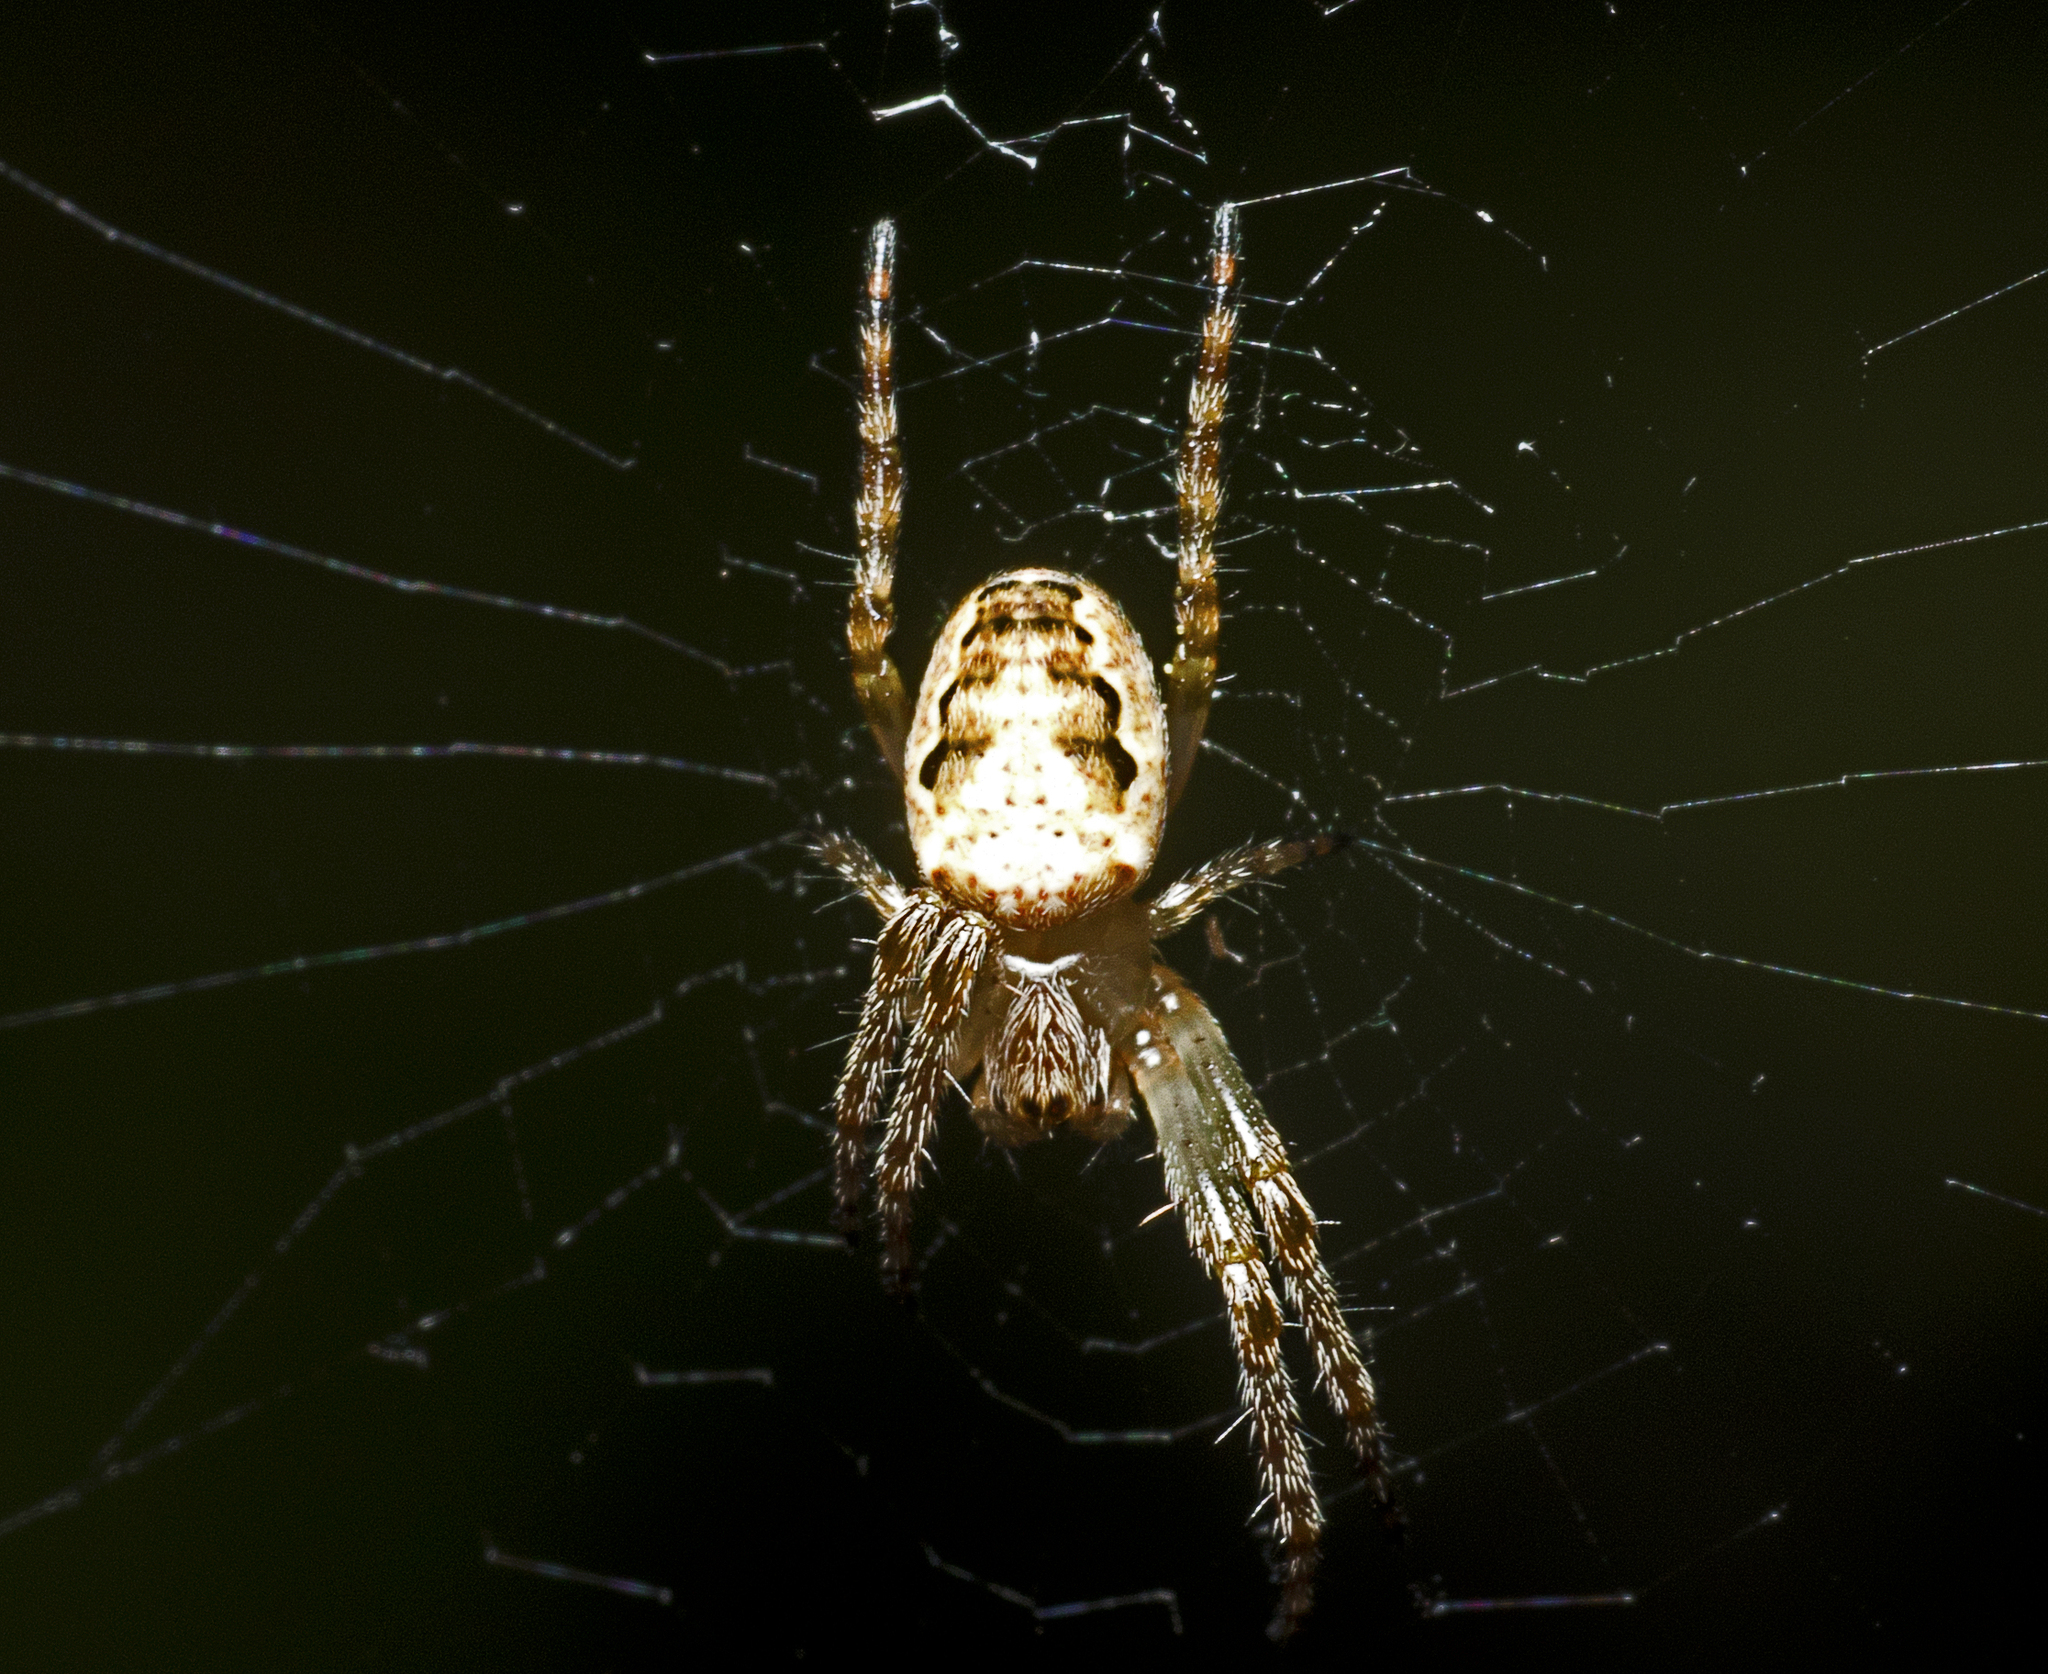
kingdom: Animalia
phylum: Arthropoda
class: Arachnida
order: Araneae
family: Araneidae
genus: Plebs
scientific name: Plebs eburnus
